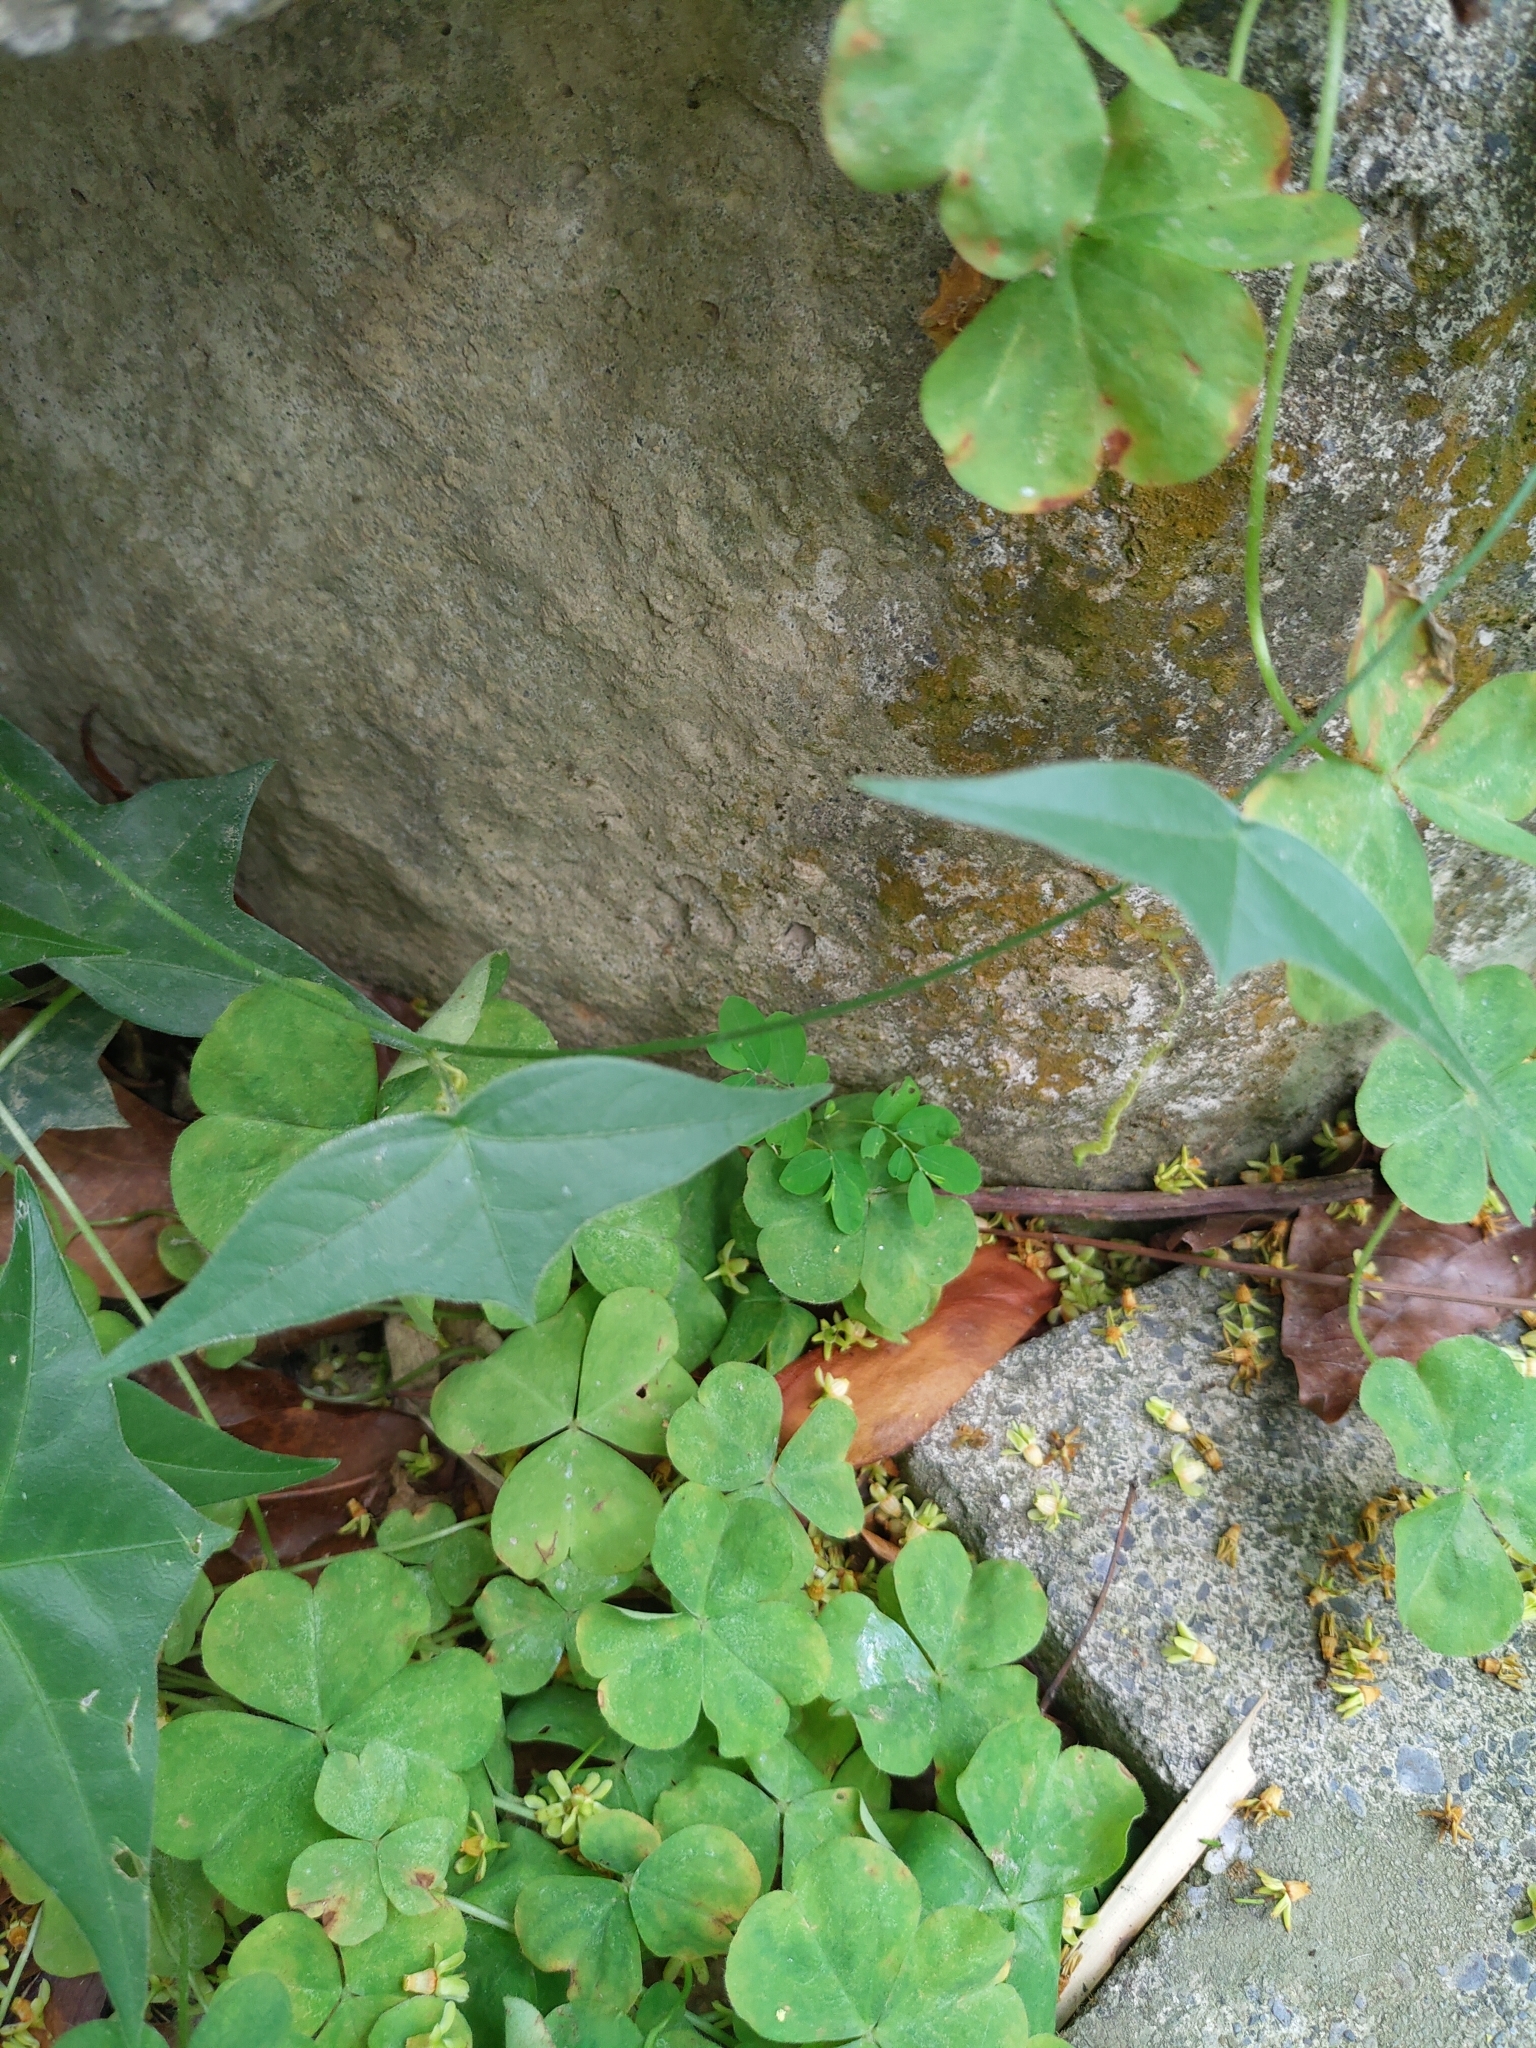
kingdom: Plantae
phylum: Tracheophyta
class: Magnoliopsida
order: Malpighiales
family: Passifloraceae
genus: Passiflora
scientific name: Passiflora suberosa
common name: Wild passionfruit
